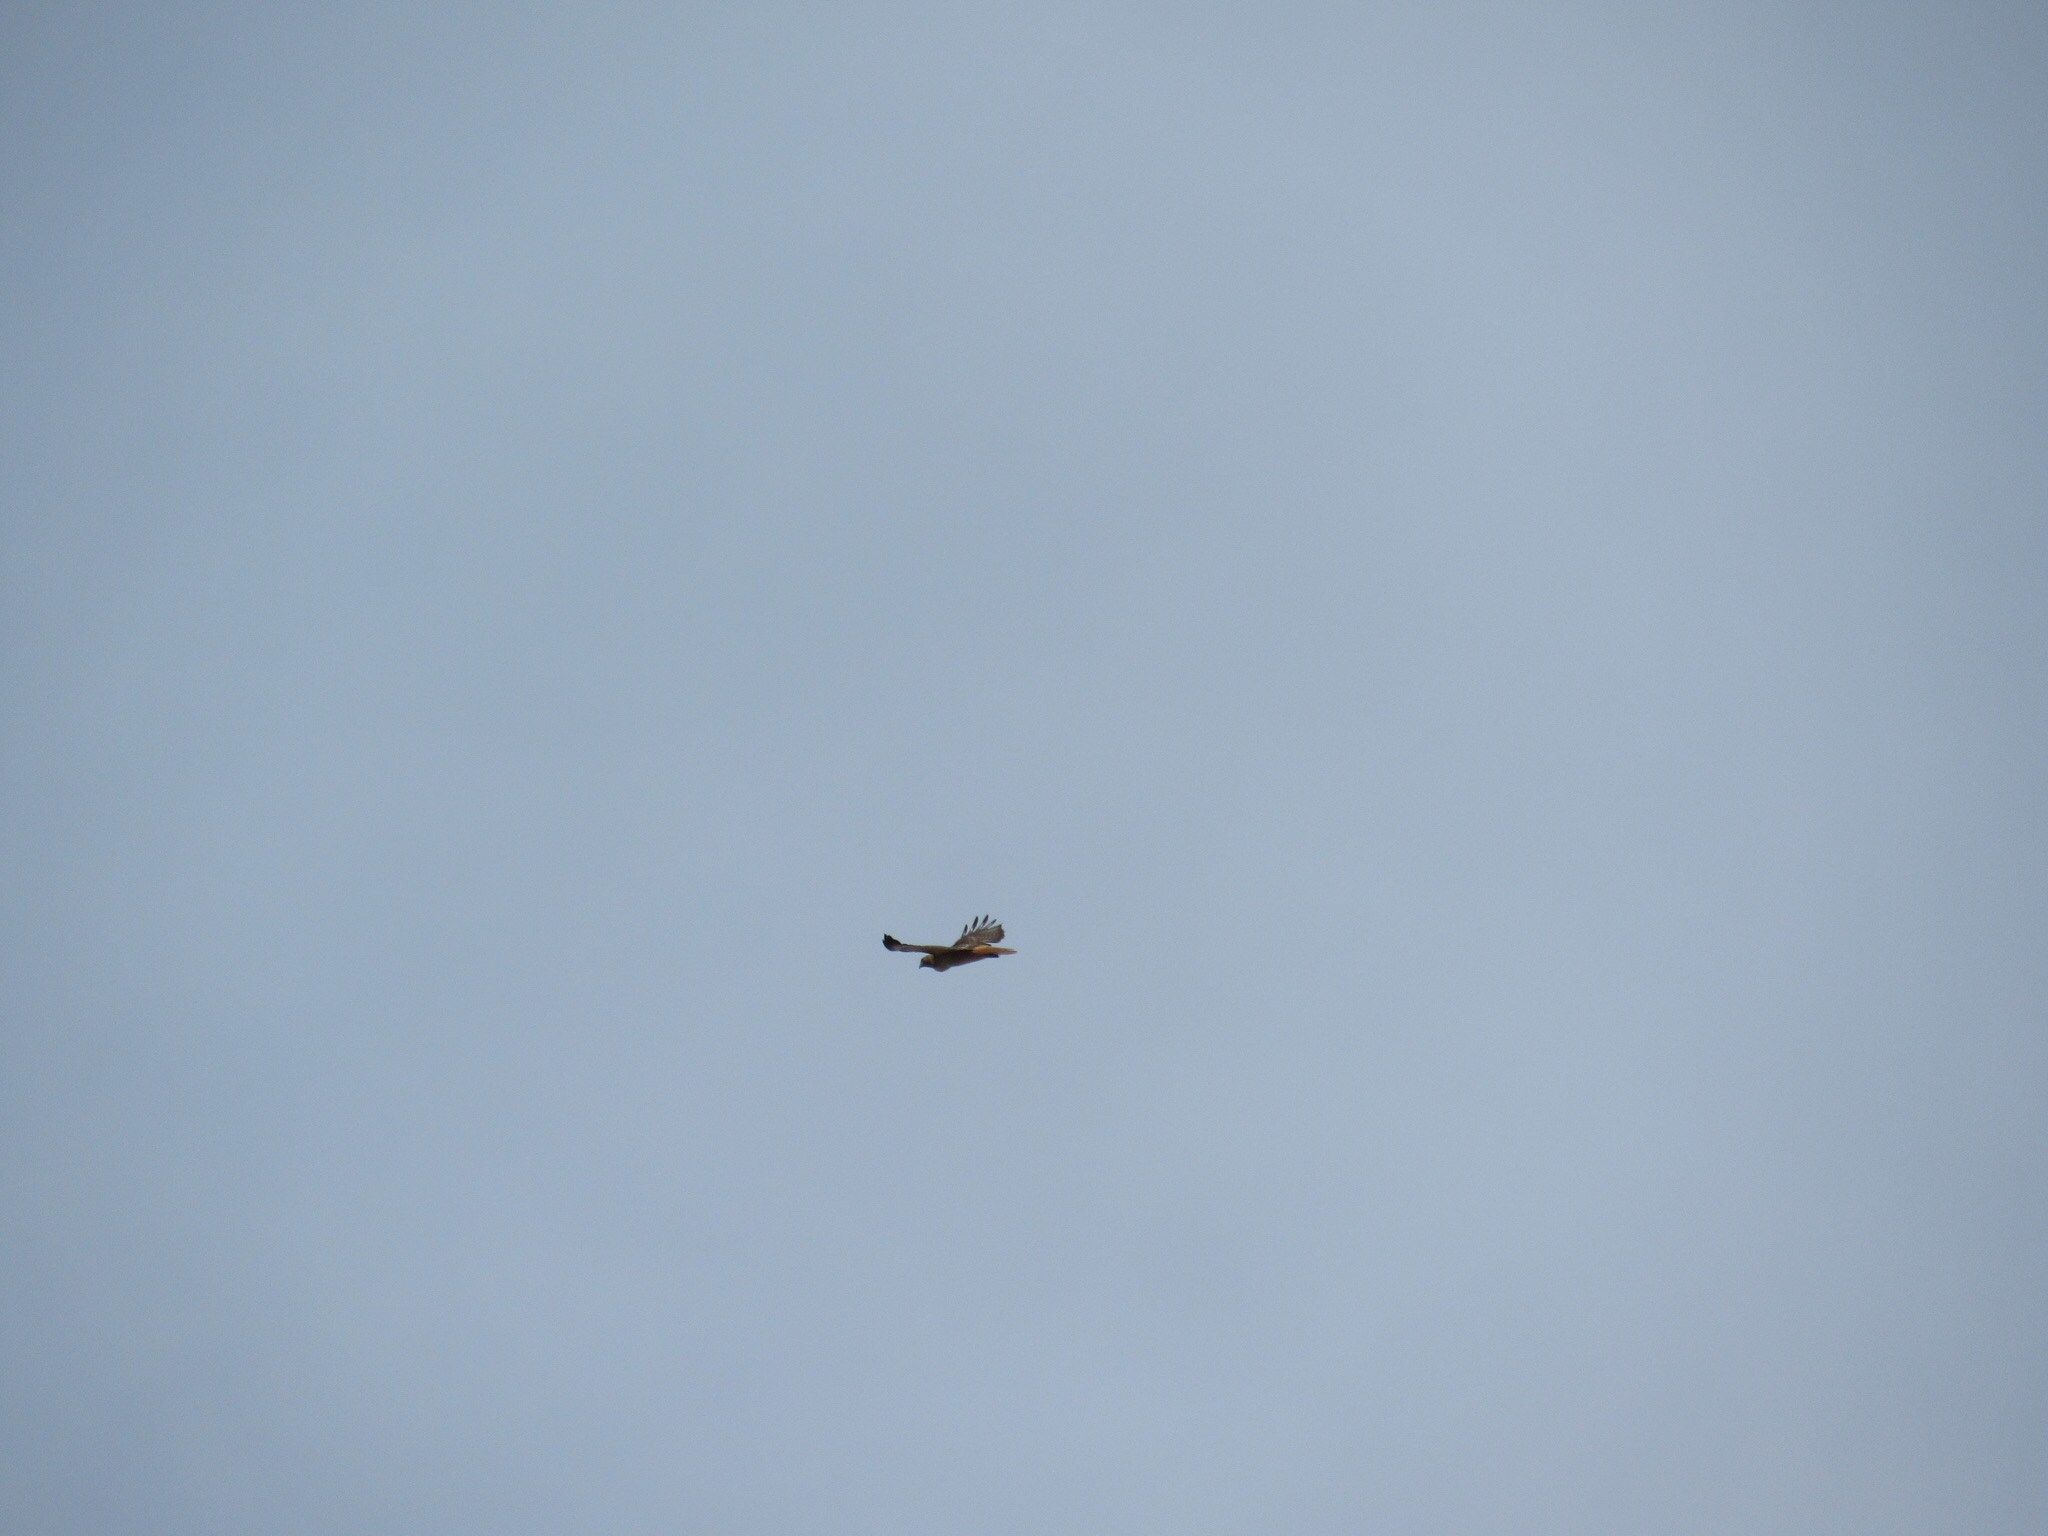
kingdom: Animalia
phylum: Chordata
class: Aves
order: Accipitriformes
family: Accipitridae
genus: Buteo
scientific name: Buteo jamaicensis
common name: Red-tailed hawk
